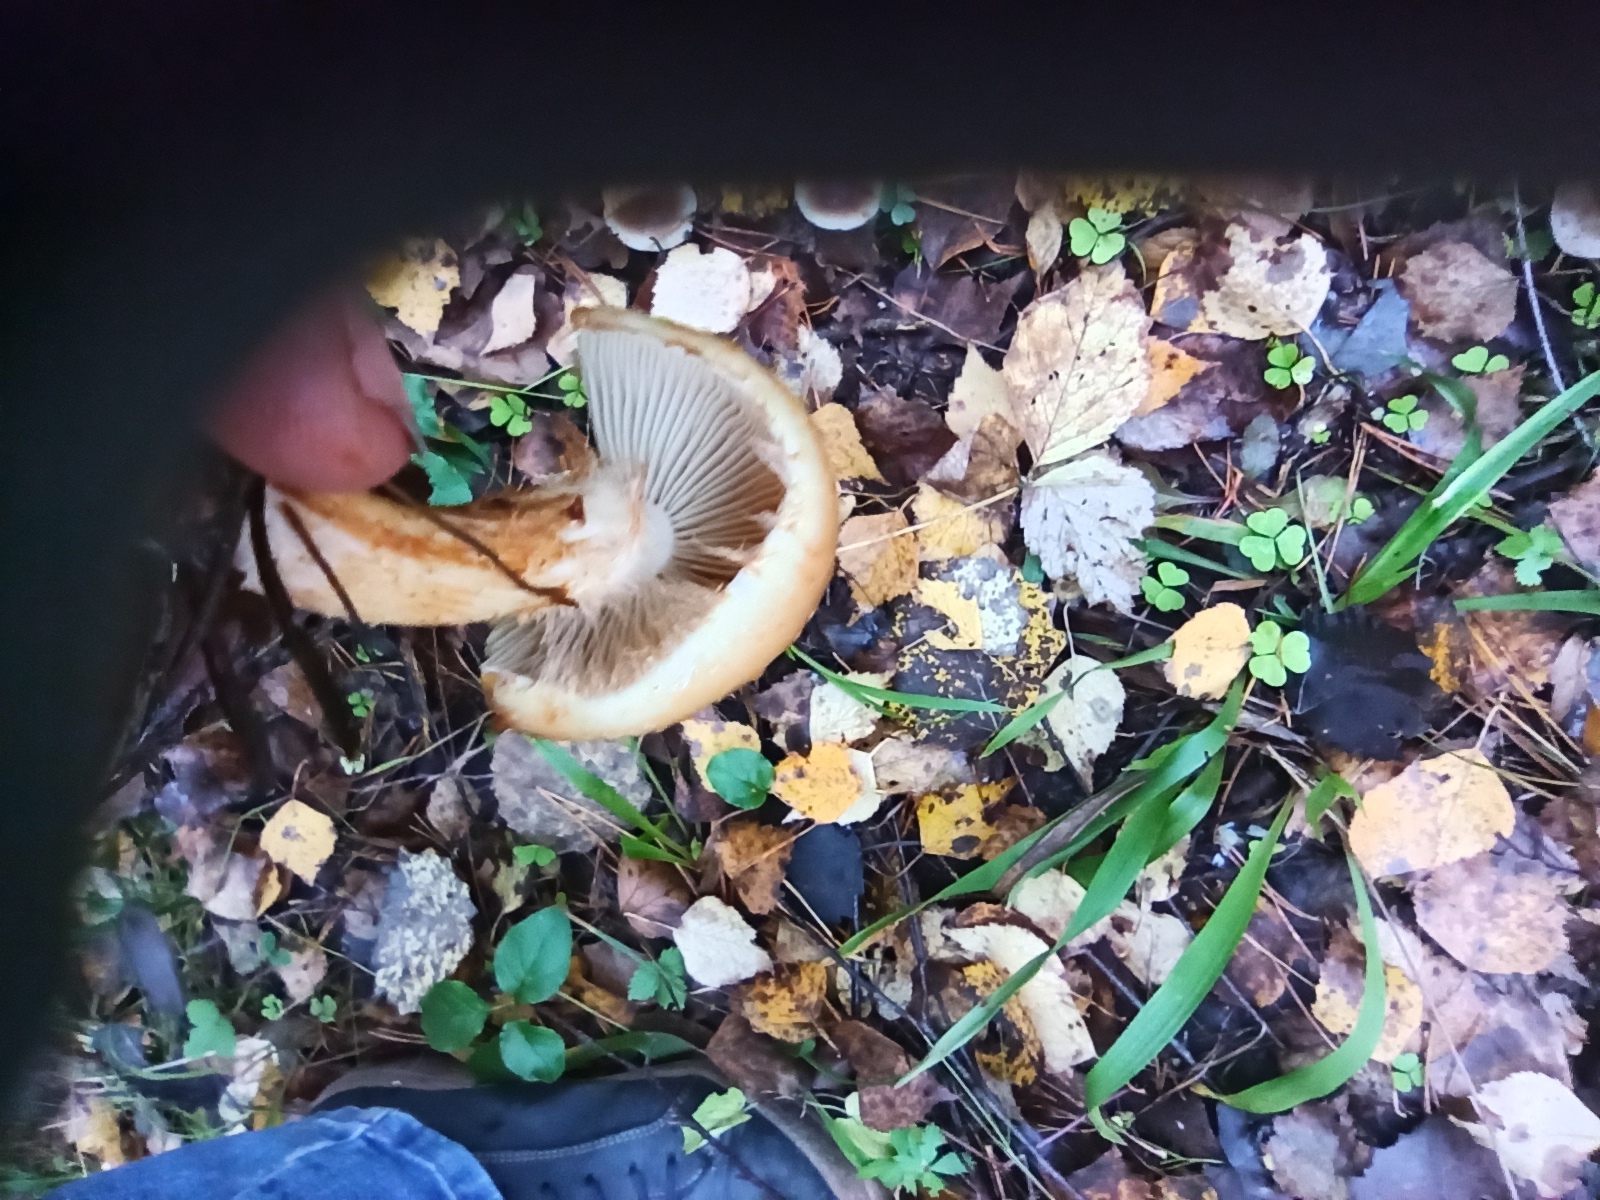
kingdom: Fungi
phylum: Basidiomycota
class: Agaricomycetes
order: Agaricales
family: Strophariaceae
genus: Pholiota
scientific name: Pholiota lubrica
